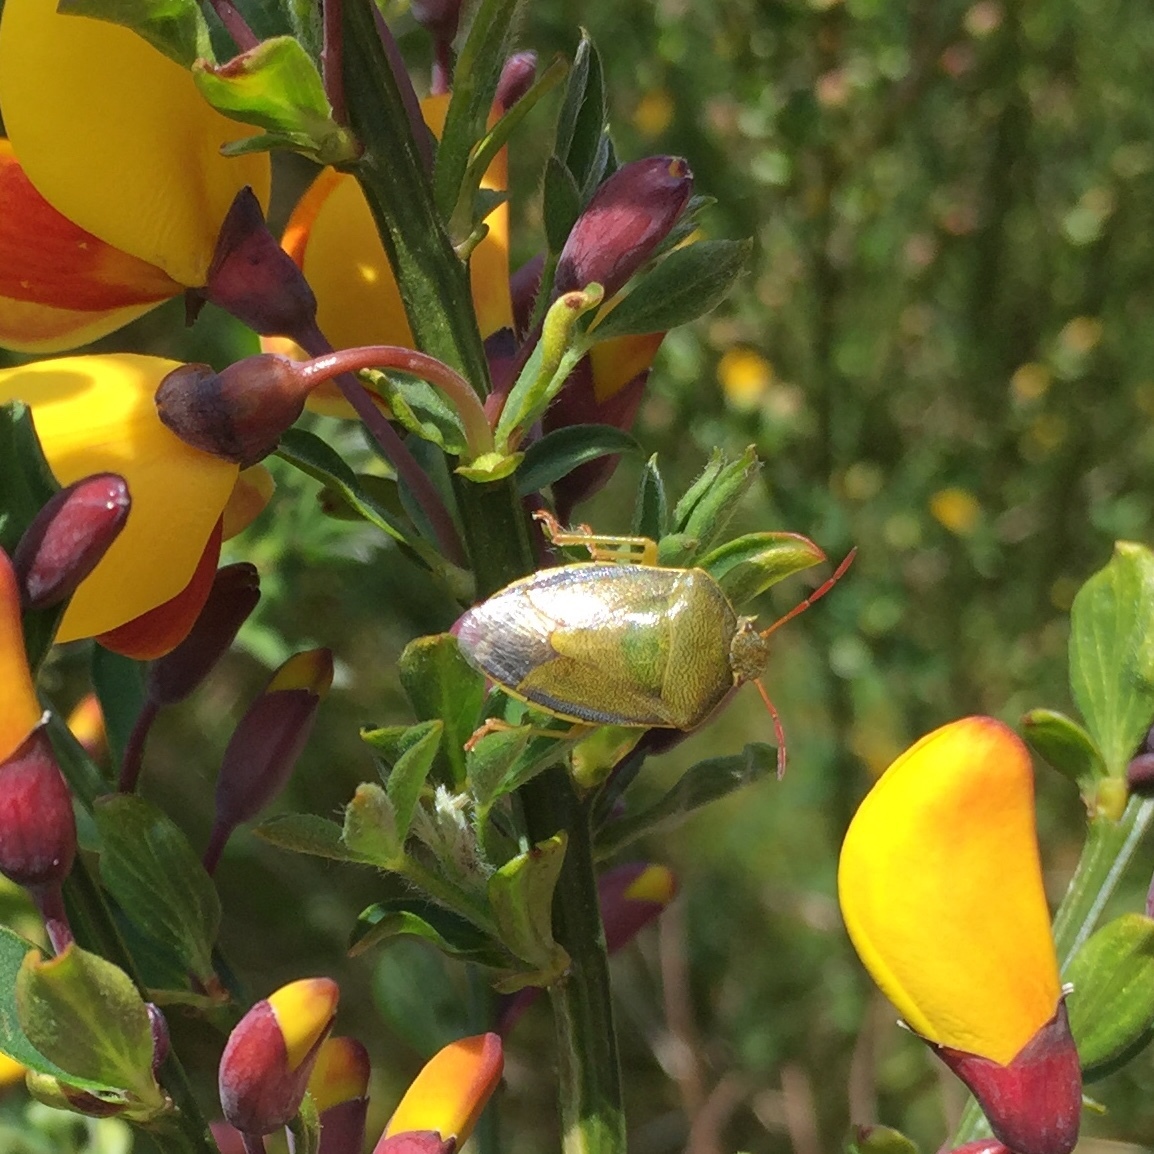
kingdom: Animalia
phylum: Arthropoda
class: Insecta
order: Hemiptera
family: Pentatomidae
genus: Piezodorus
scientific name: Piezodorus lituratus
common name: Stink bug
